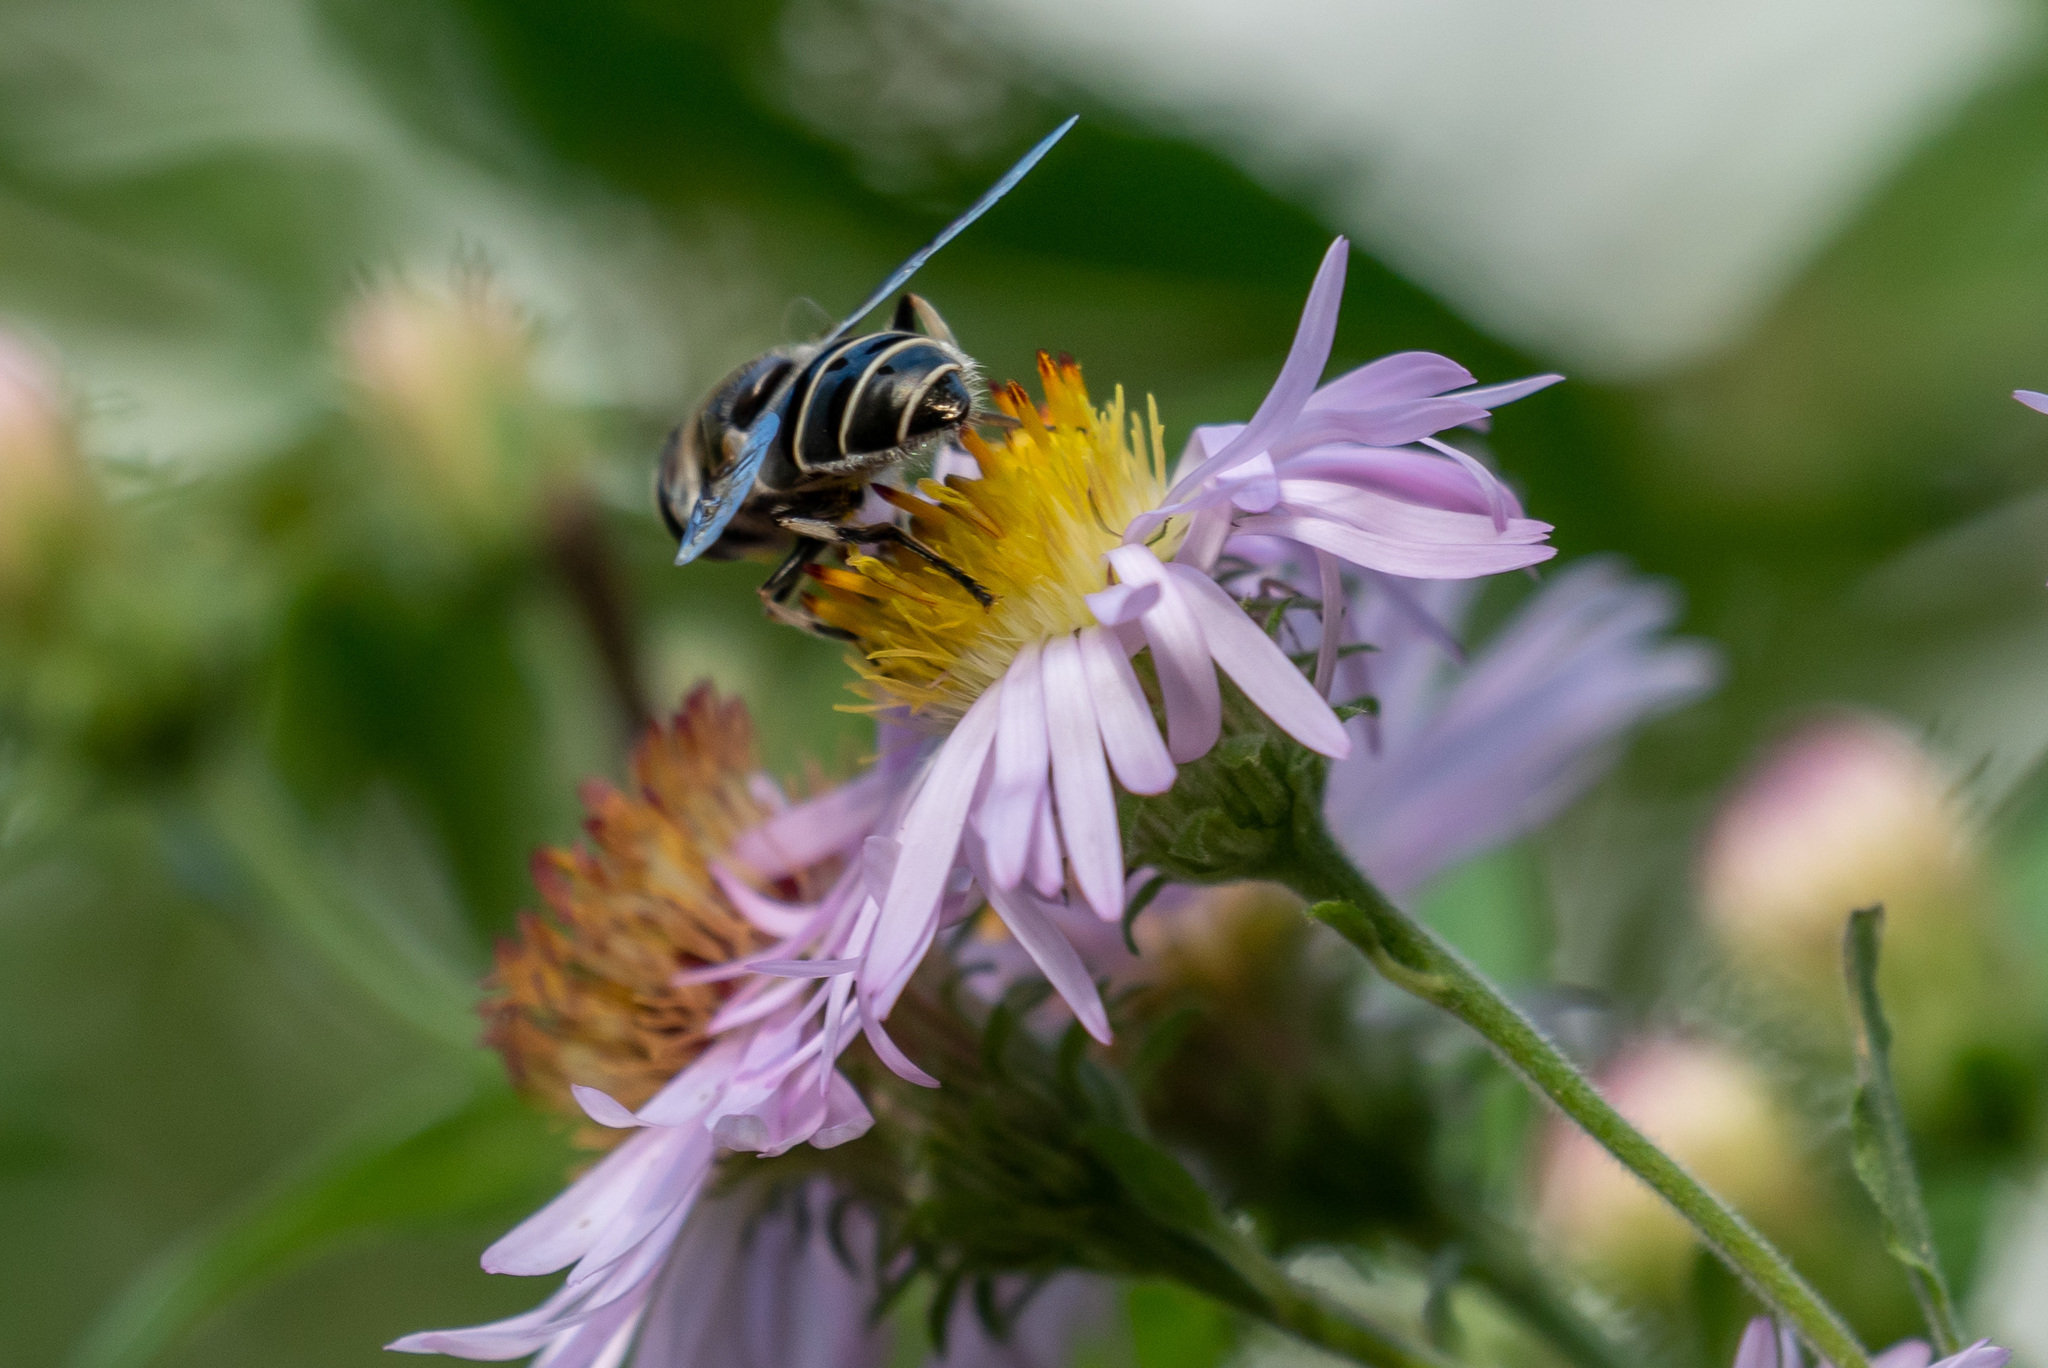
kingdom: Animalia
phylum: Arthropoda
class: Insecta
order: Diptera
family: Syrphidae
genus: Eristalis
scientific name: Eristalis dimidiata
